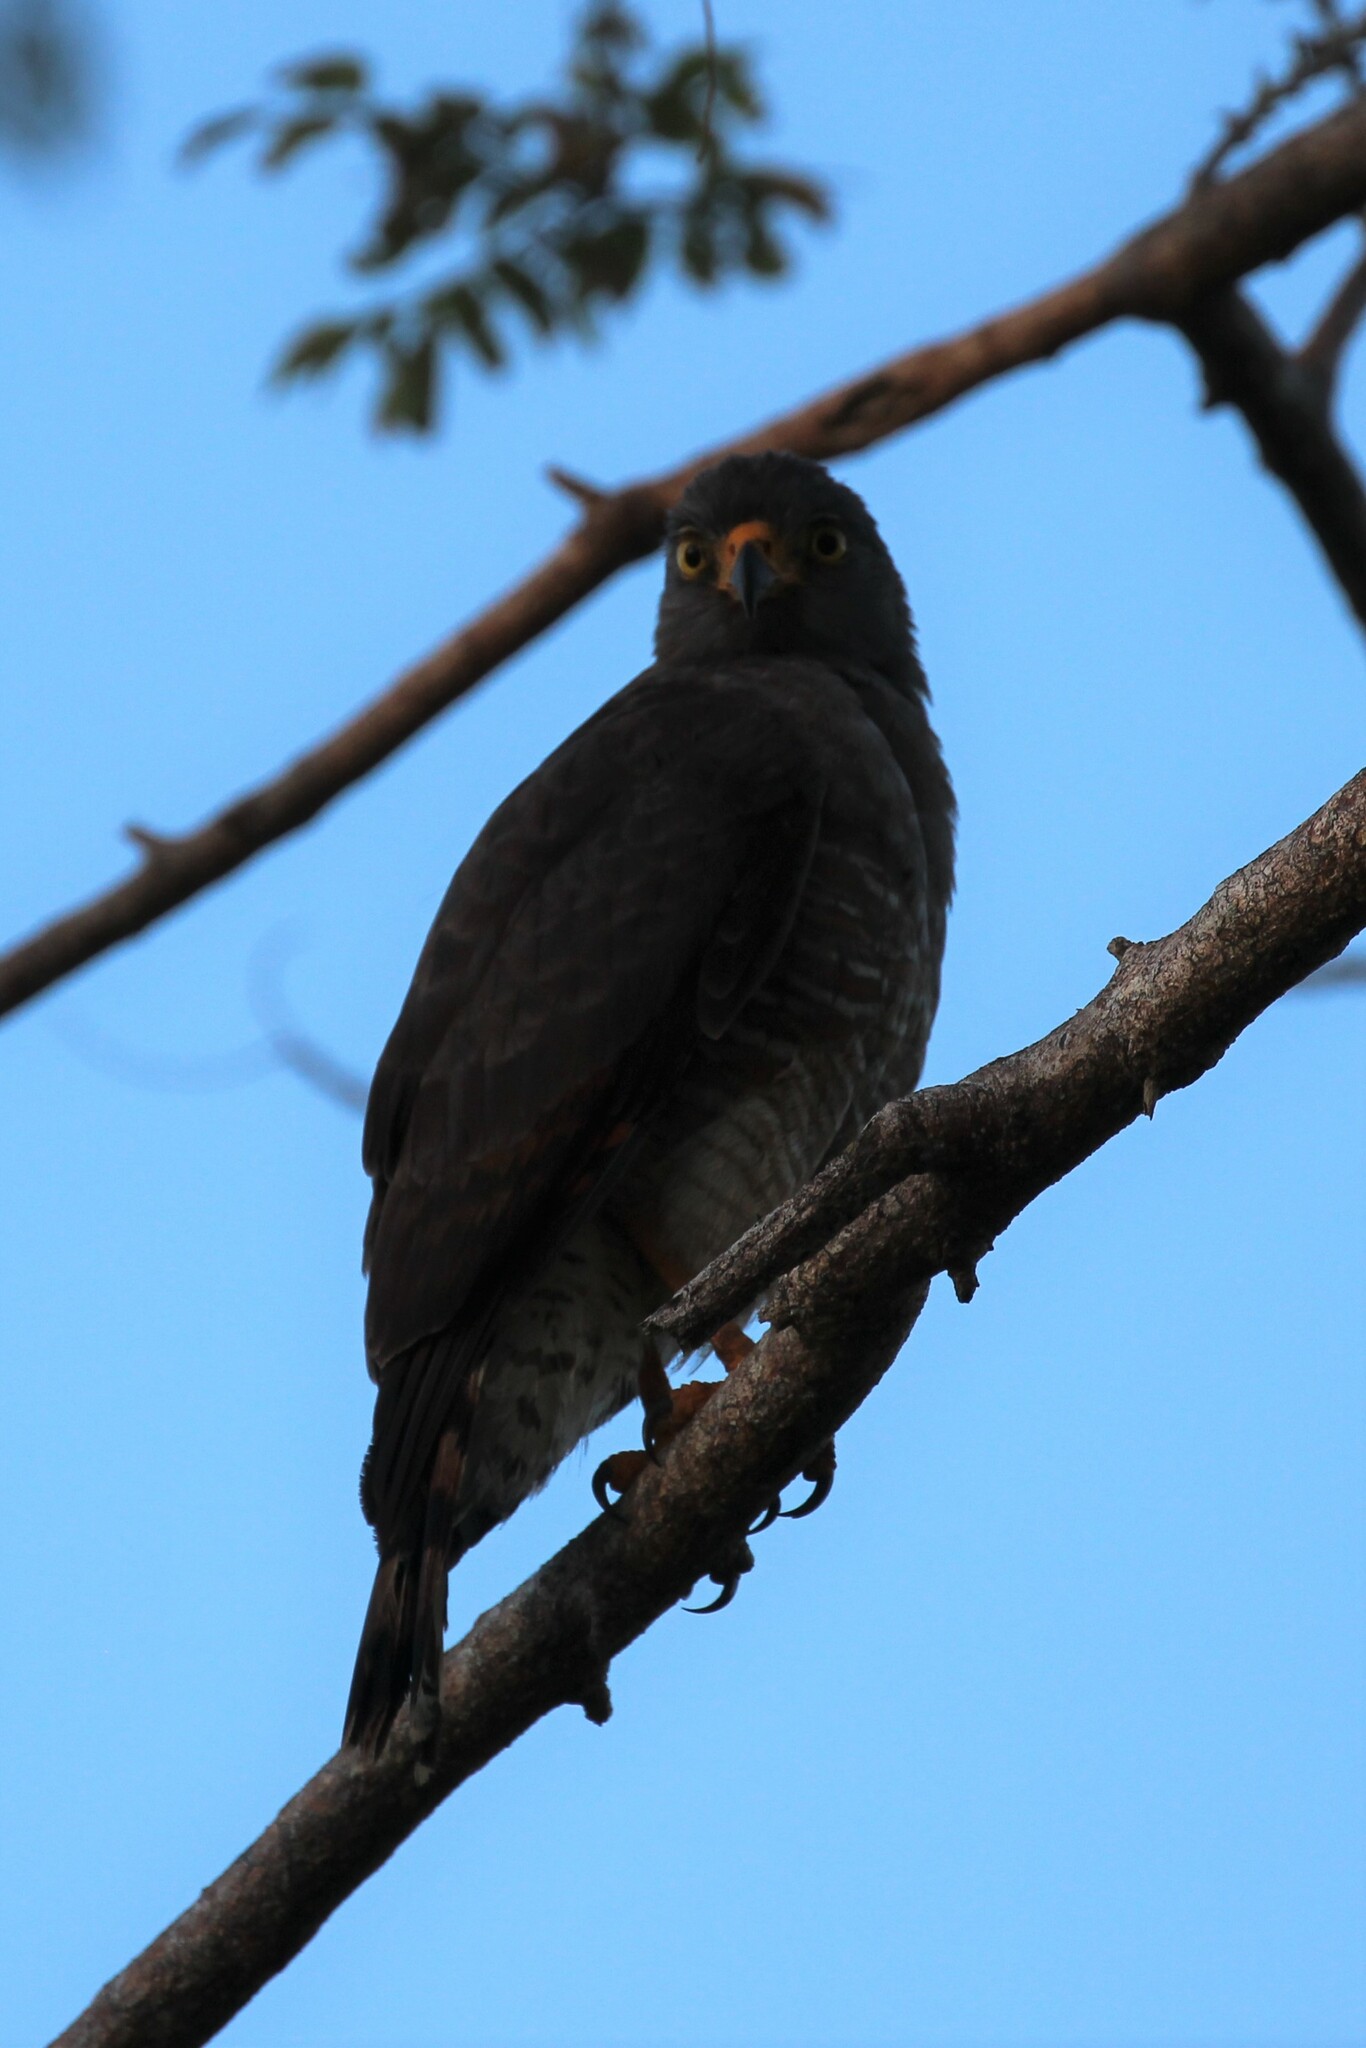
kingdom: Animalia
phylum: Chordata
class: Aves
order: Accipitriformes
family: Accipitridae
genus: Rupornis
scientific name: Rupornis magnirostris
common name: Roadside hawk
